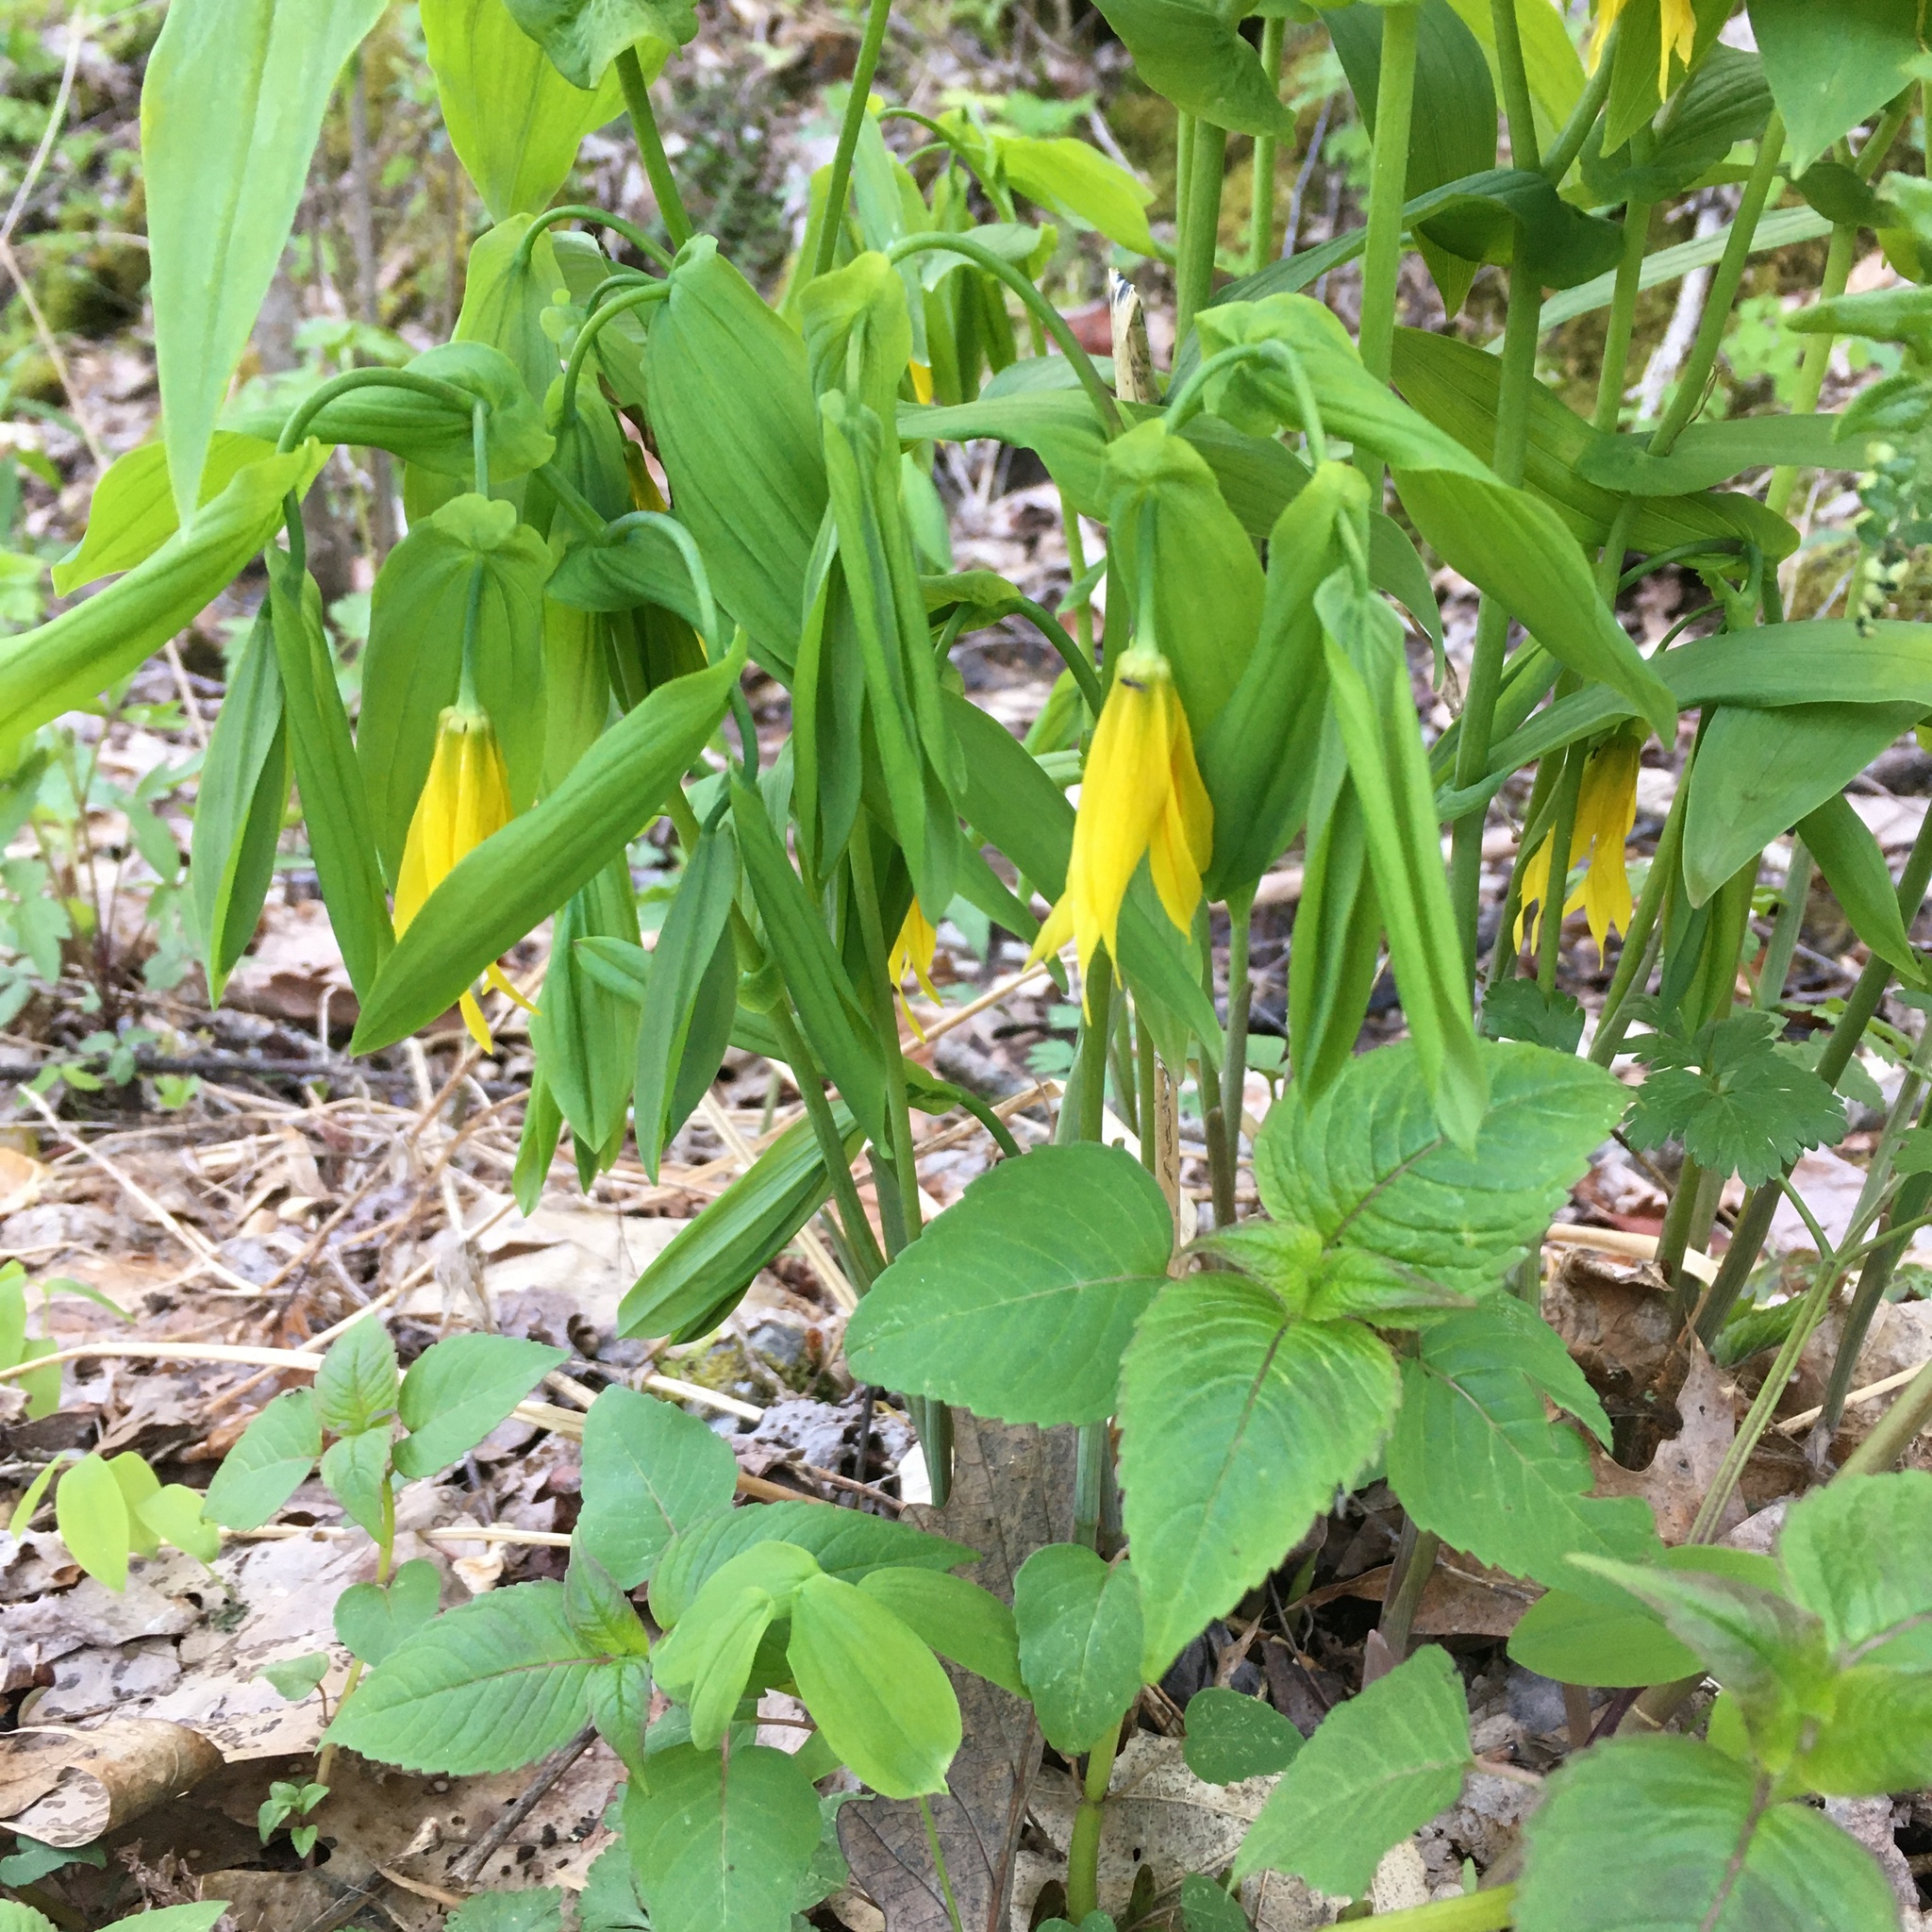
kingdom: Plantae
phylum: Tracheophyta
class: Liliopsida
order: Liliales
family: Colchicaceae
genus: Uvularia
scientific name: Uvularia grandiflora
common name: Bellwort
